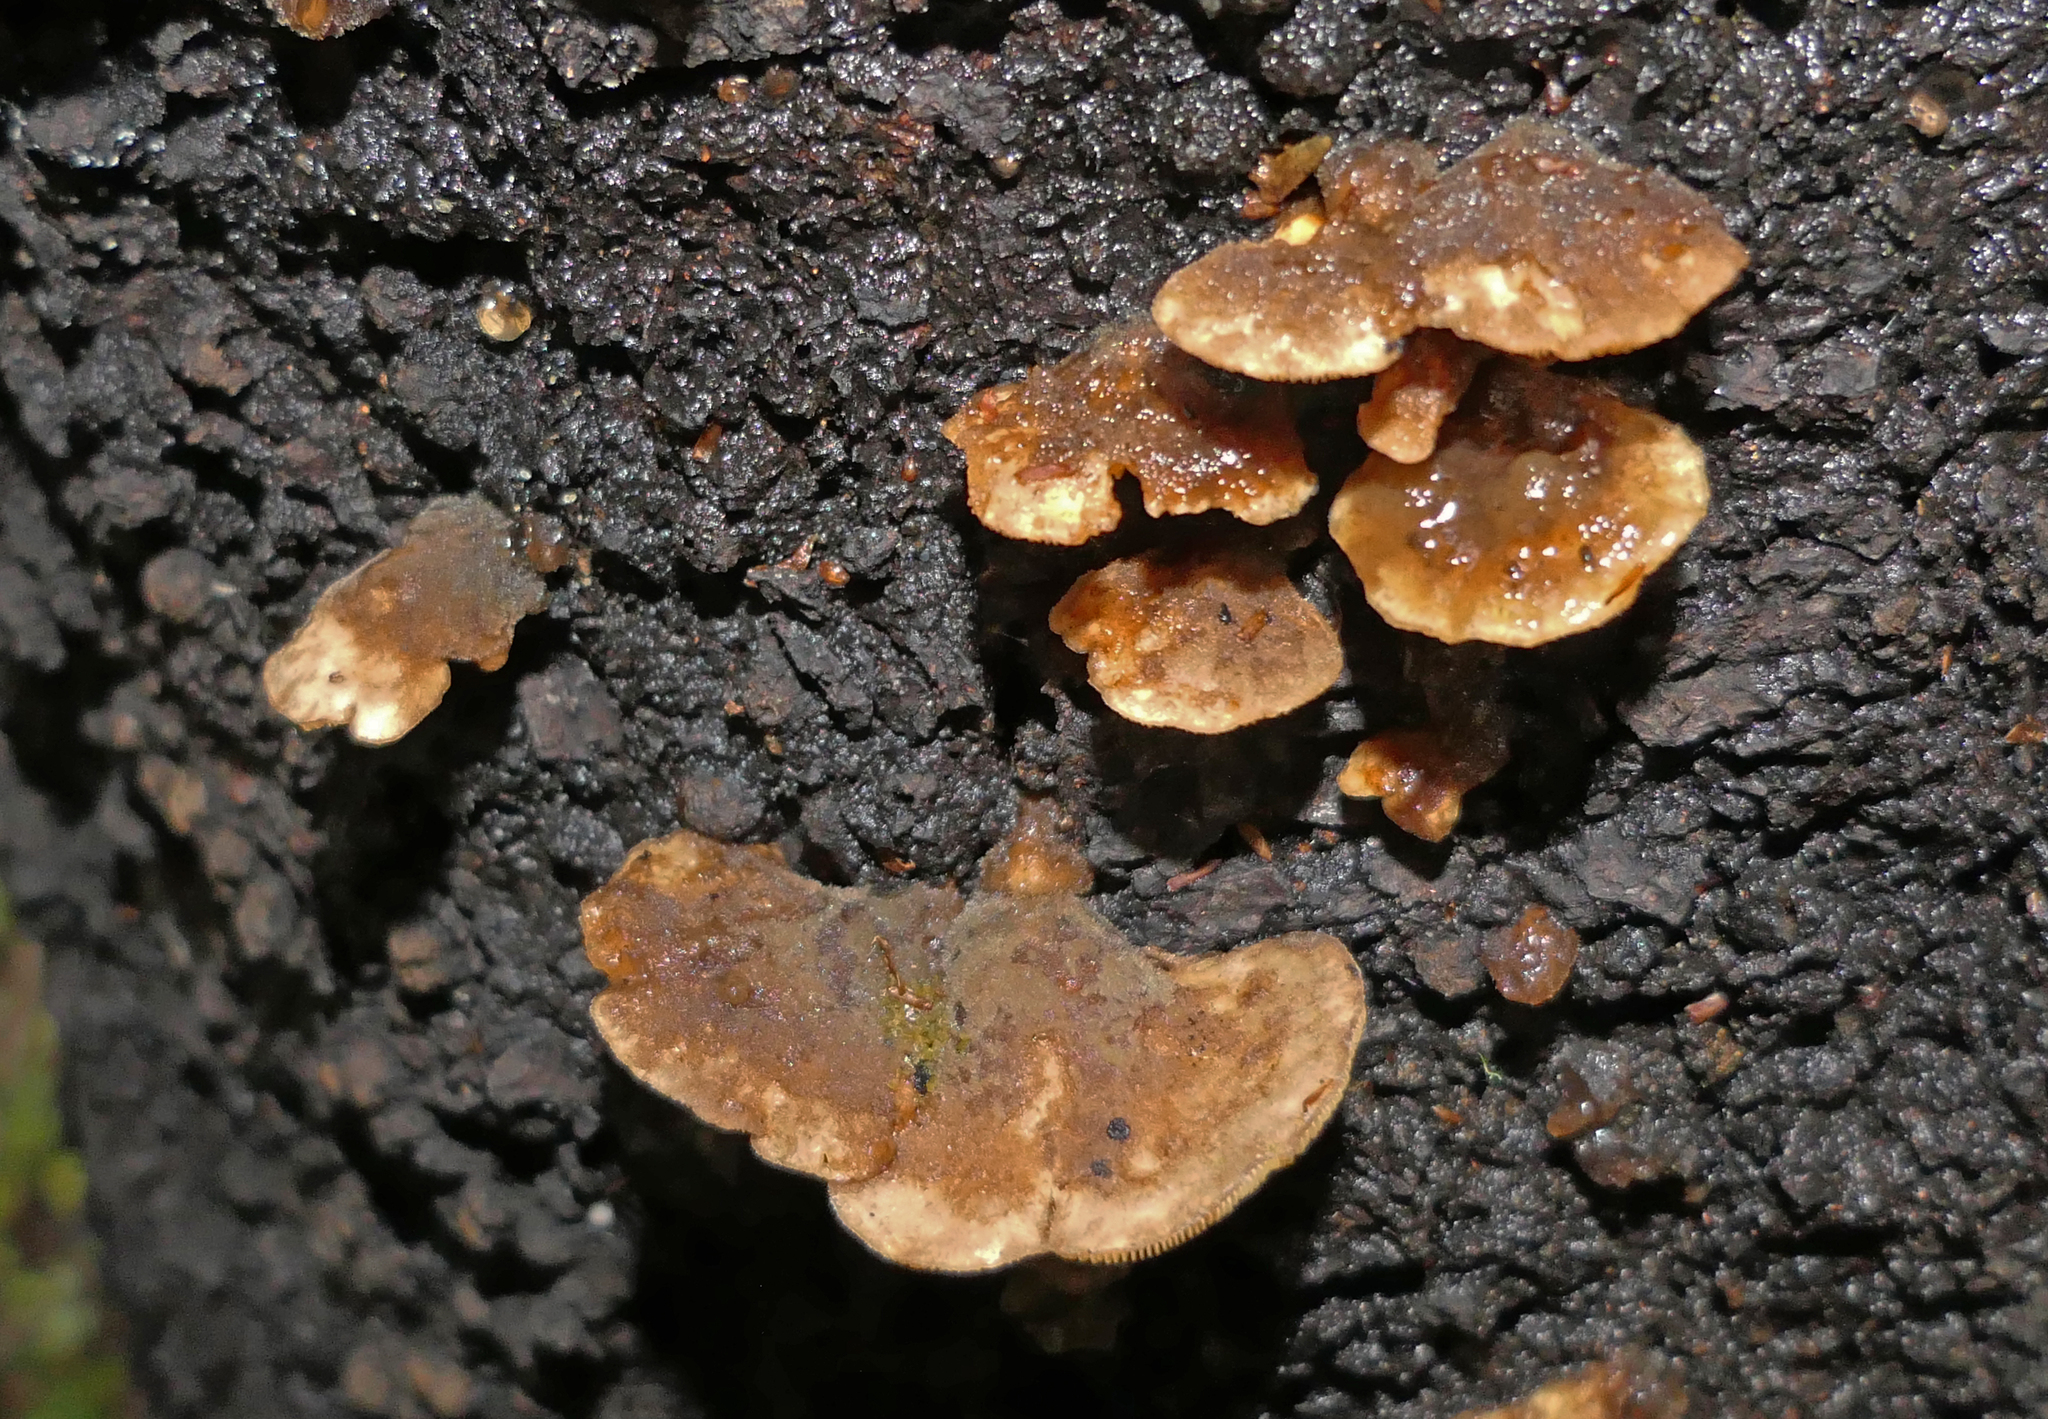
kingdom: Fungi
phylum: Basidiomycota
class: Agaricomycetes
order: Agaricales
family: Pleurotaceae
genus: Hohenbuehelia
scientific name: Hohenbuehelia nothofaginea
